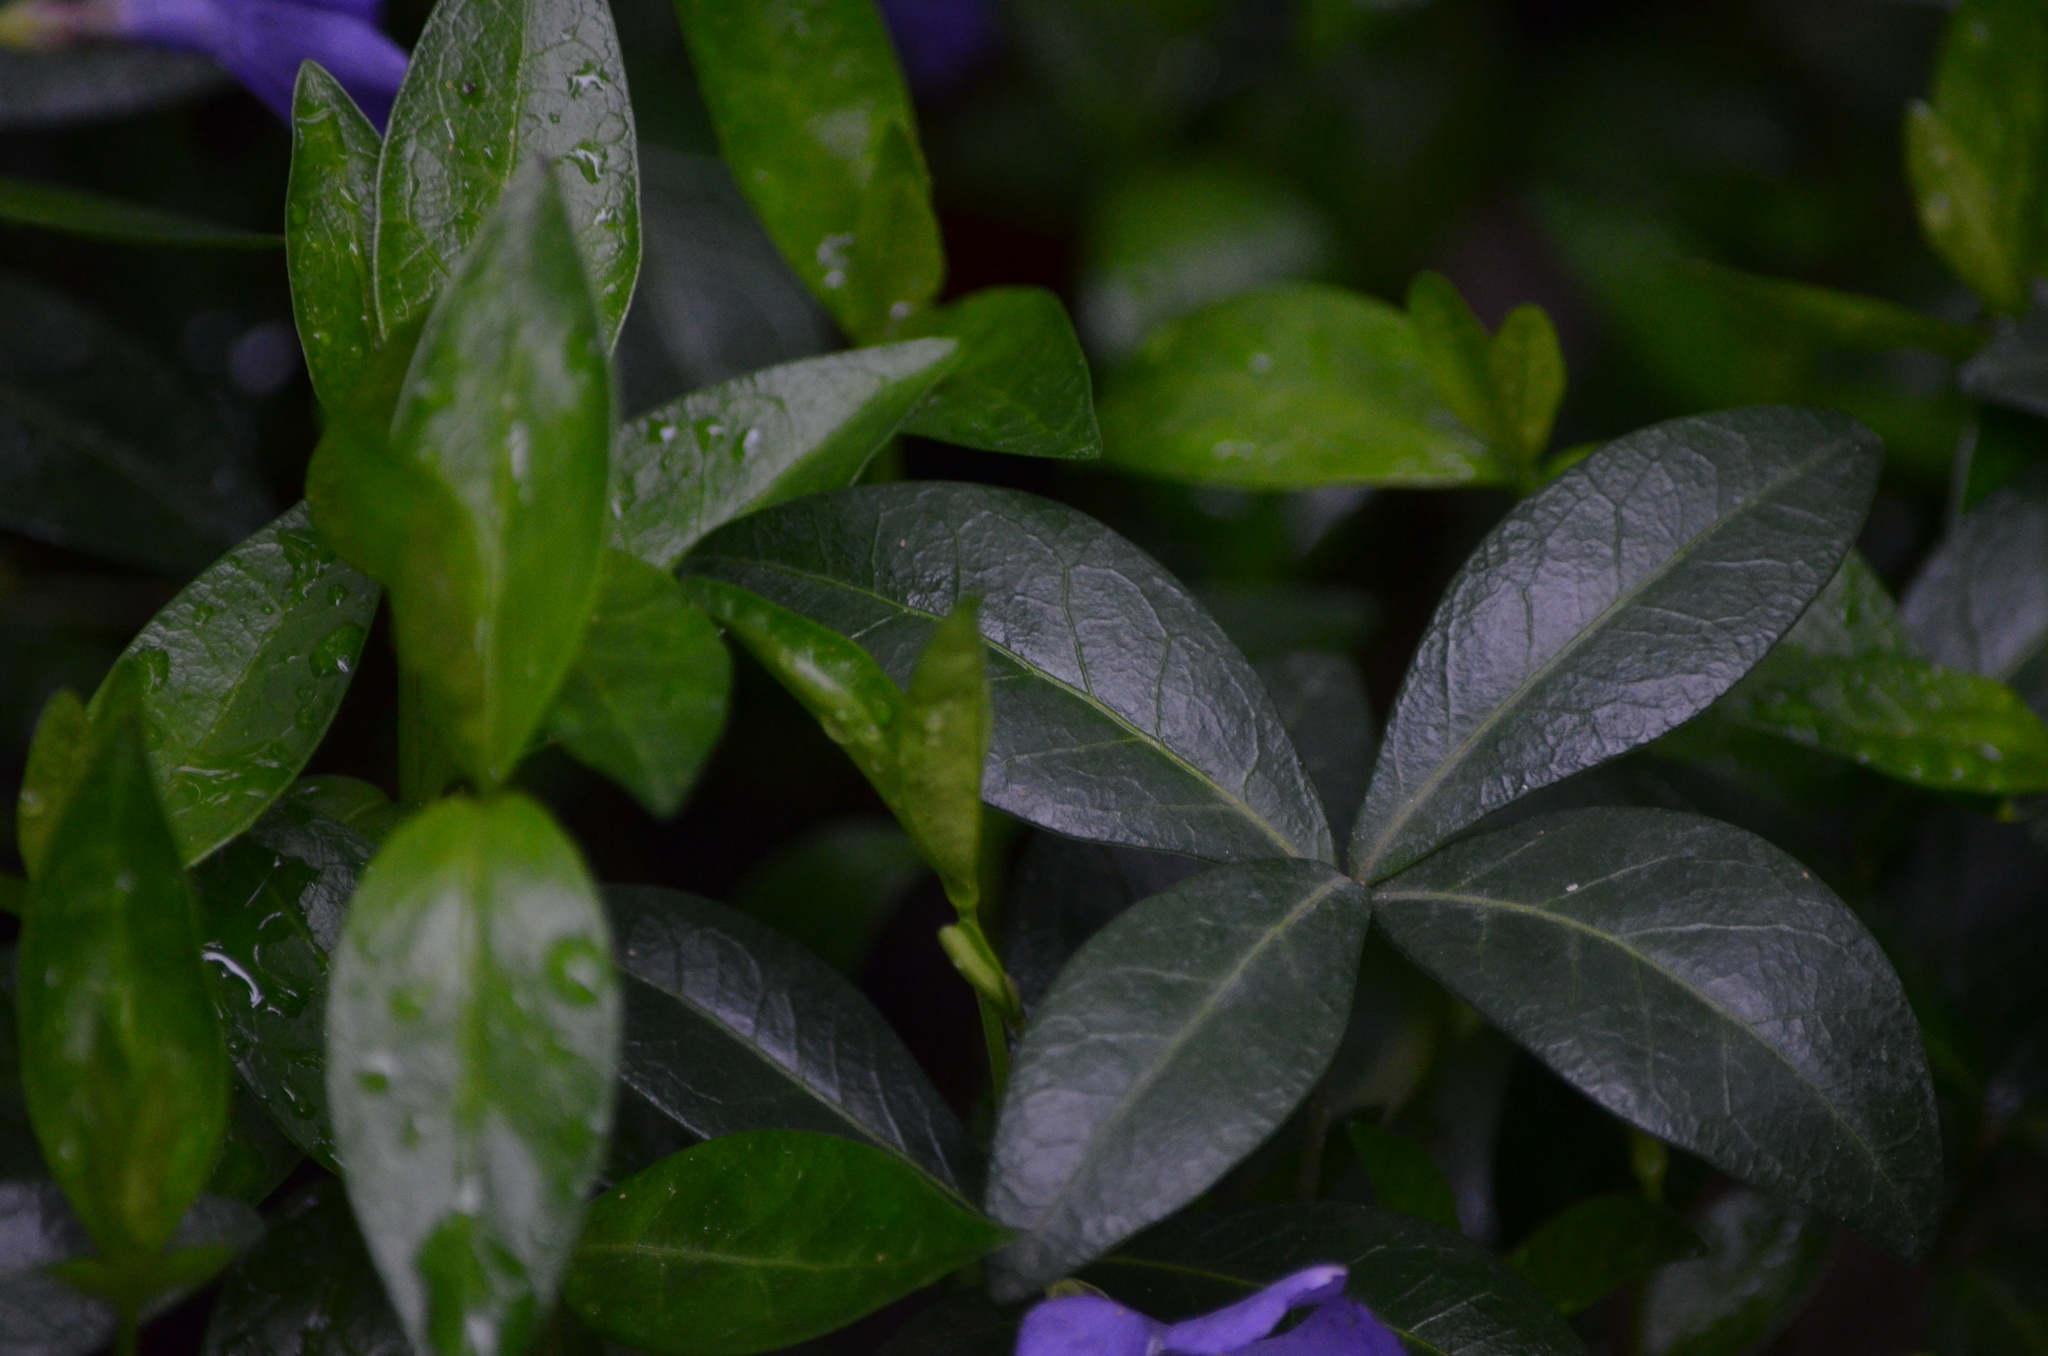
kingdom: Plantae
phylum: Tracheophyta
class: Magnoliopsida
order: Gentianales
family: Apocynaceae
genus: Vinca
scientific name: Vinca minor
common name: Lesser periwinkle
